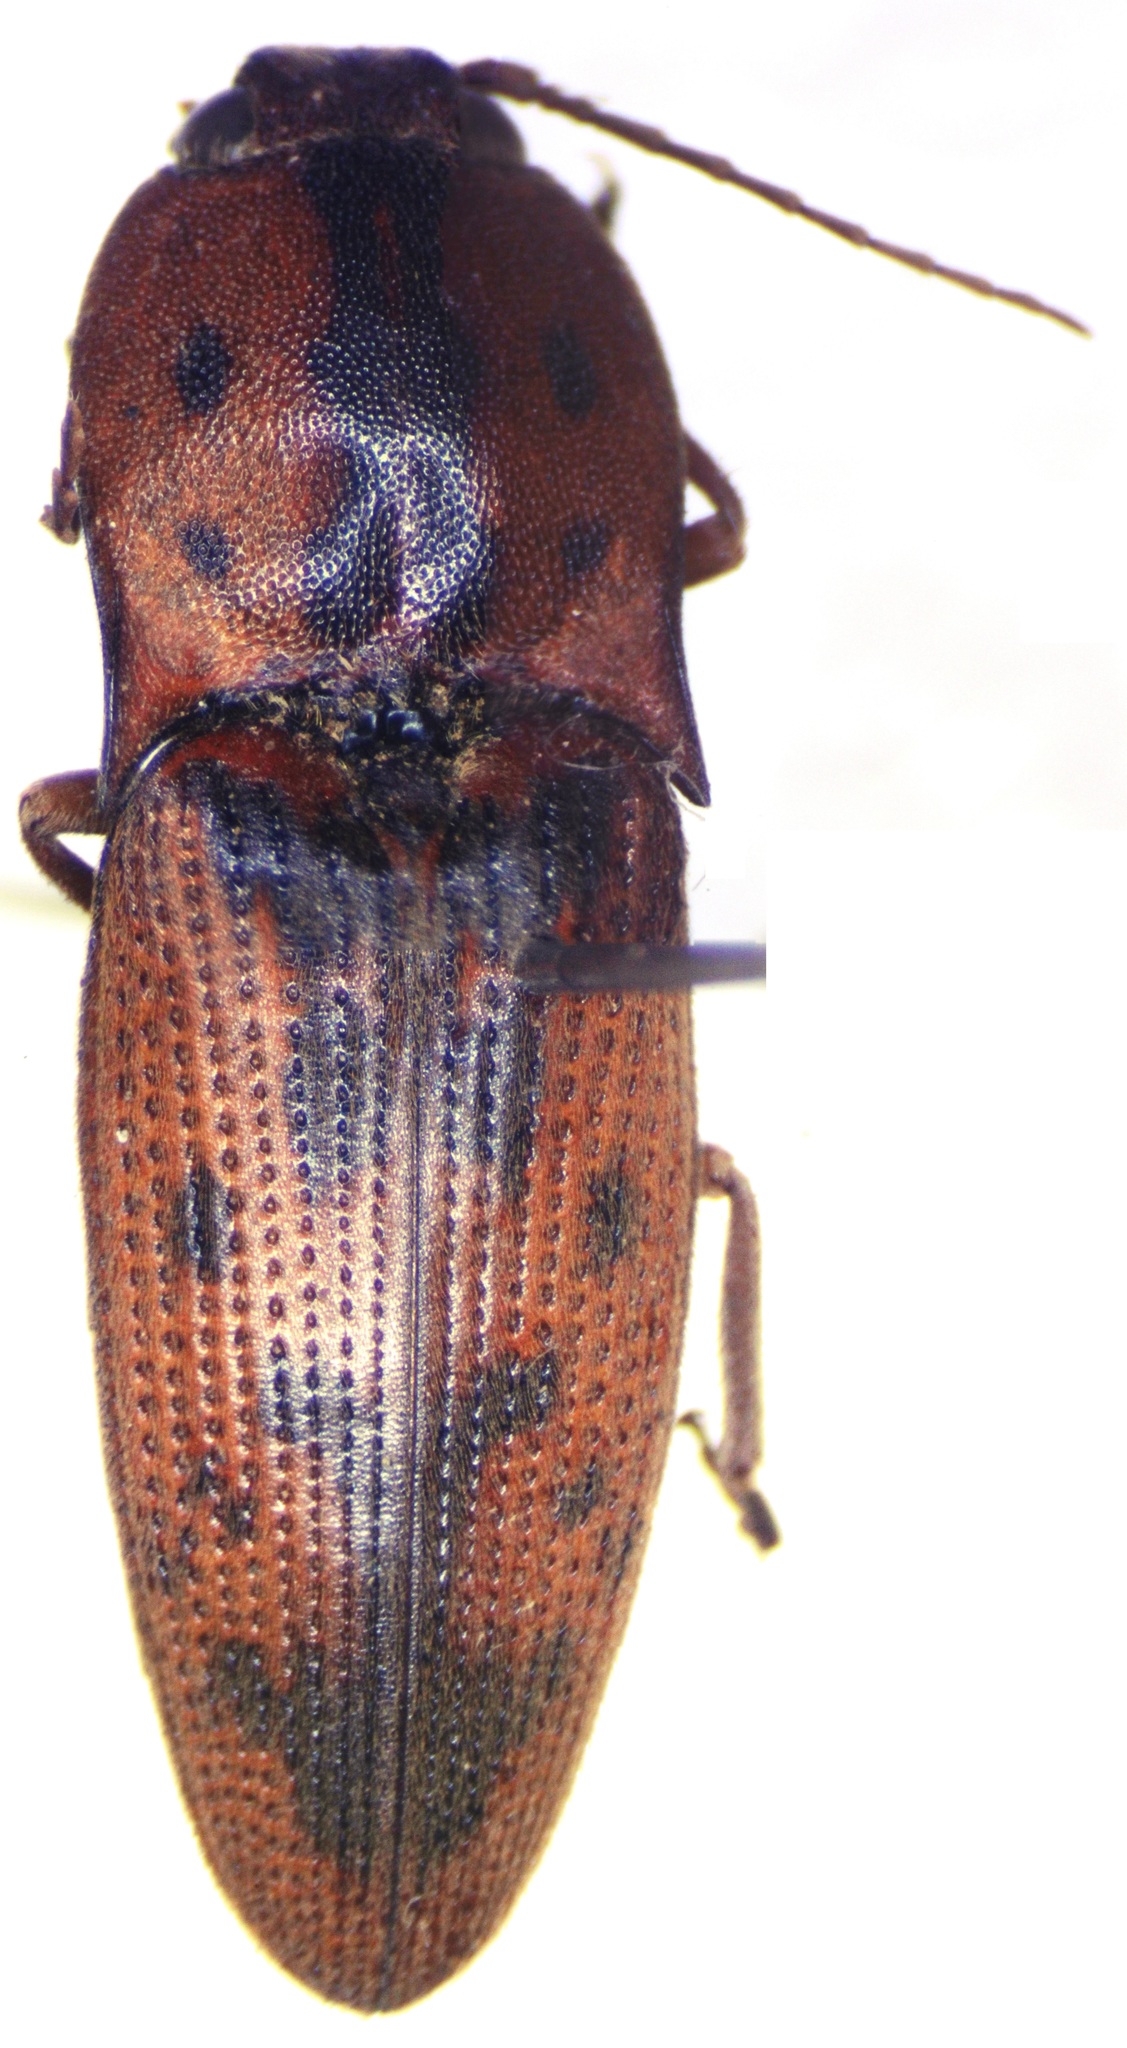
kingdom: Animalia
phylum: Arthropoda
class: Insecta
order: Coleoptera
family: Elateridae
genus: Monocrepidius
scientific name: Monocrepidius pilatei
